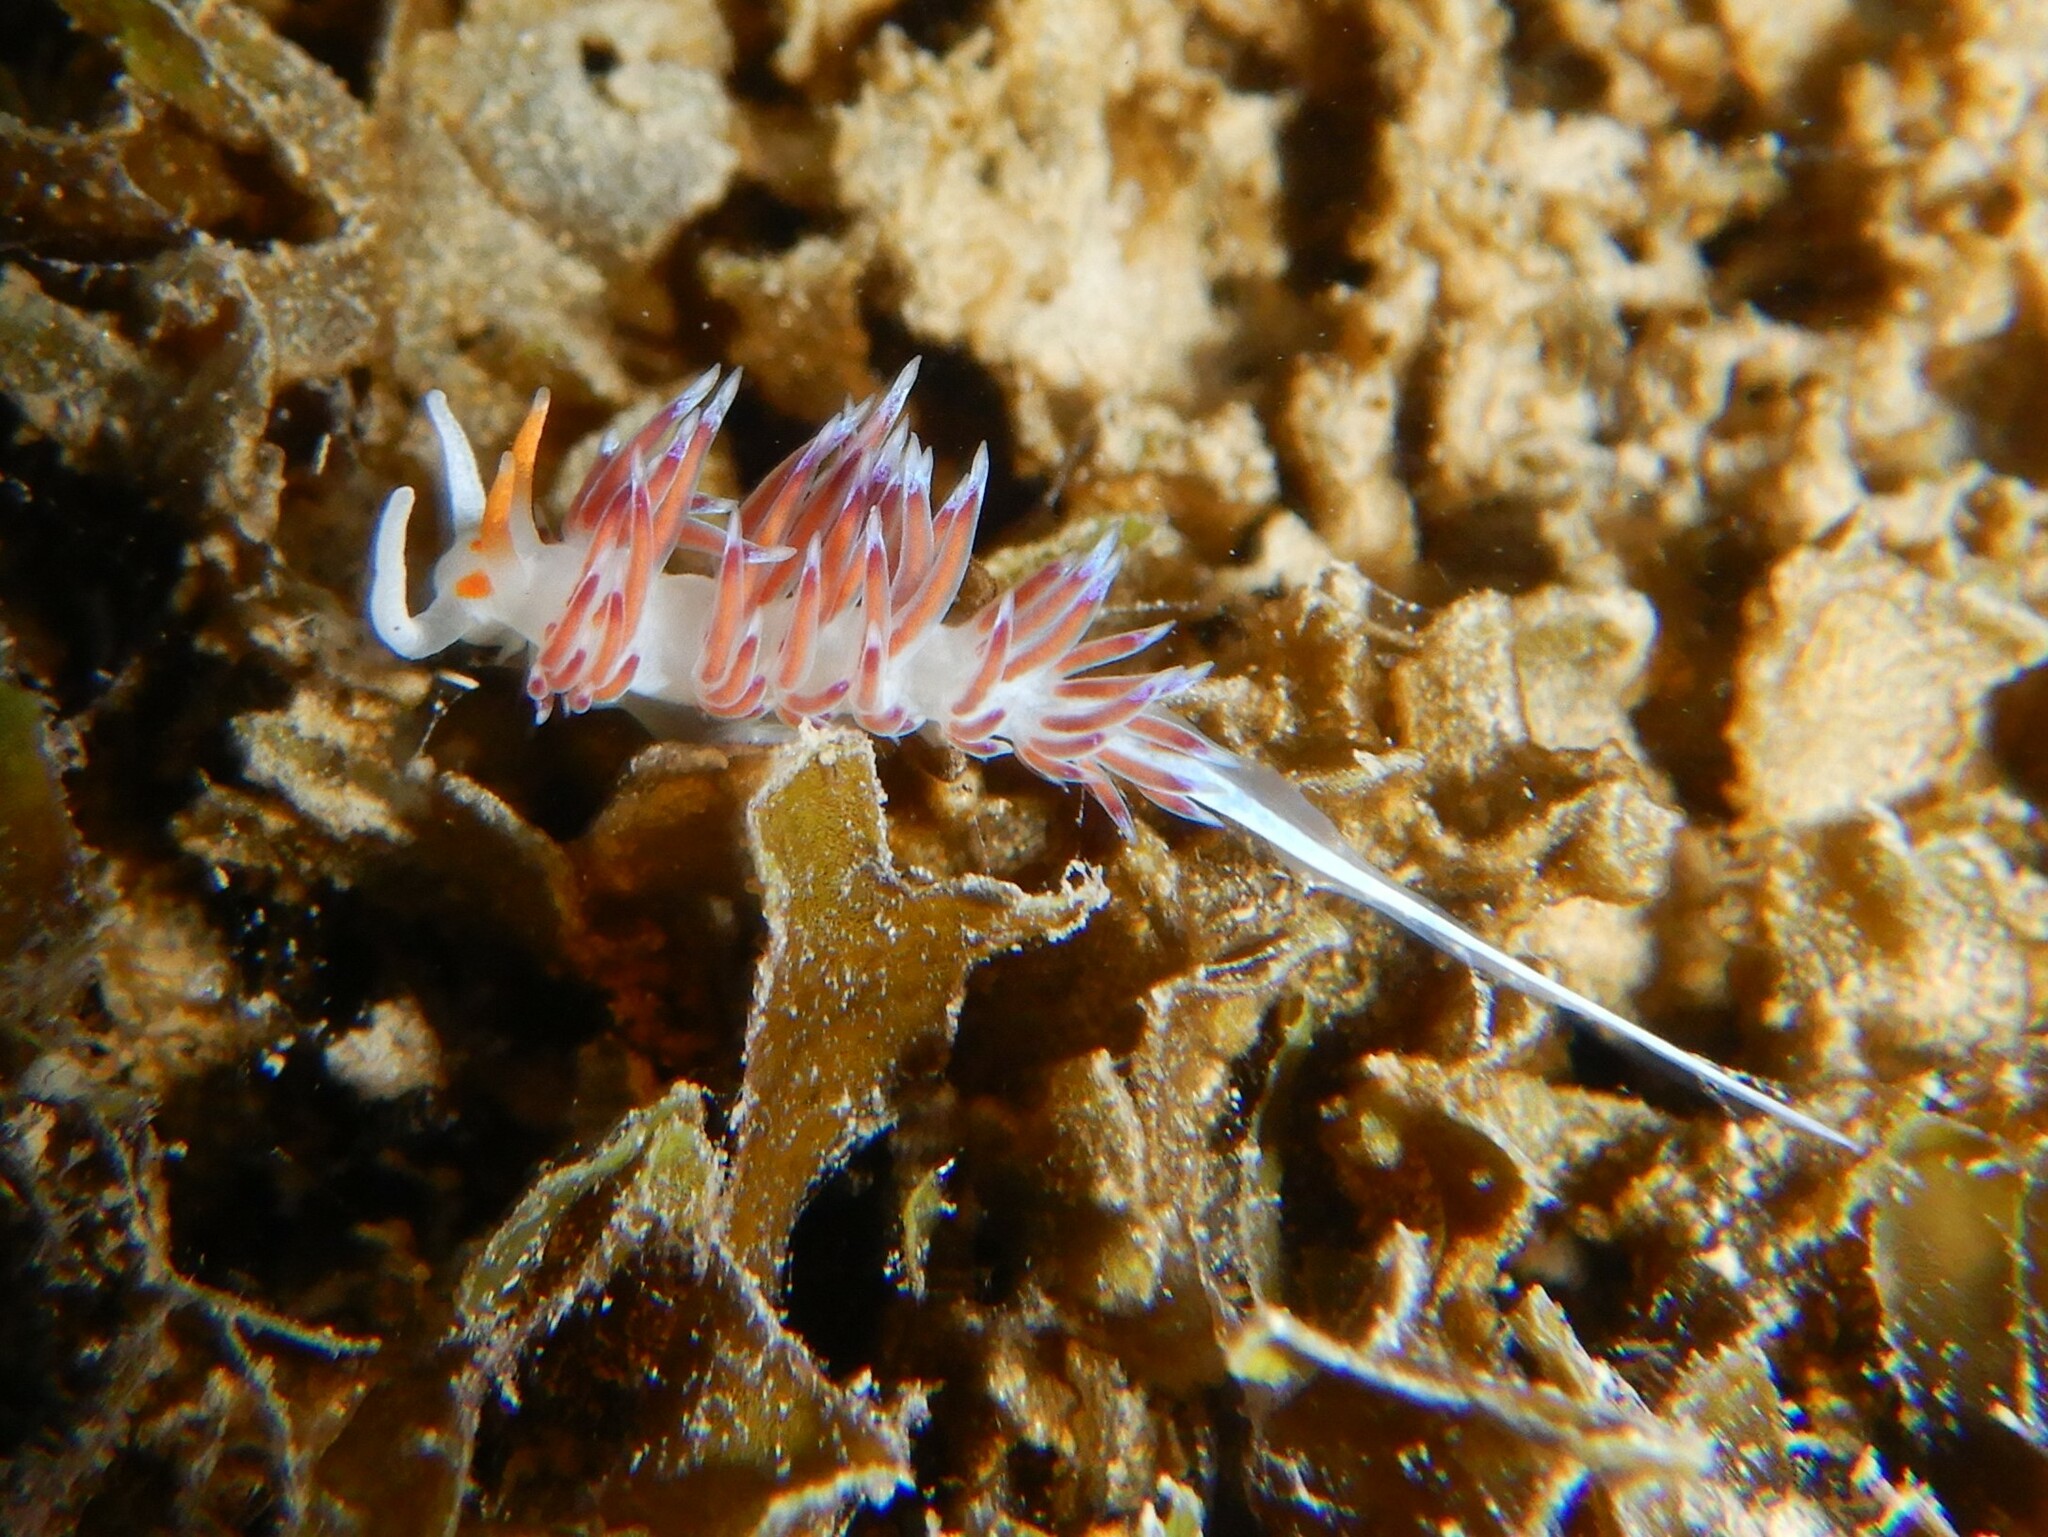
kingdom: Animalia
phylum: Mollusca
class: Gastropoda
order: Nudibranchia
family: Facelinidae
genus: Cratena
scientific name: Cratena peregrina
